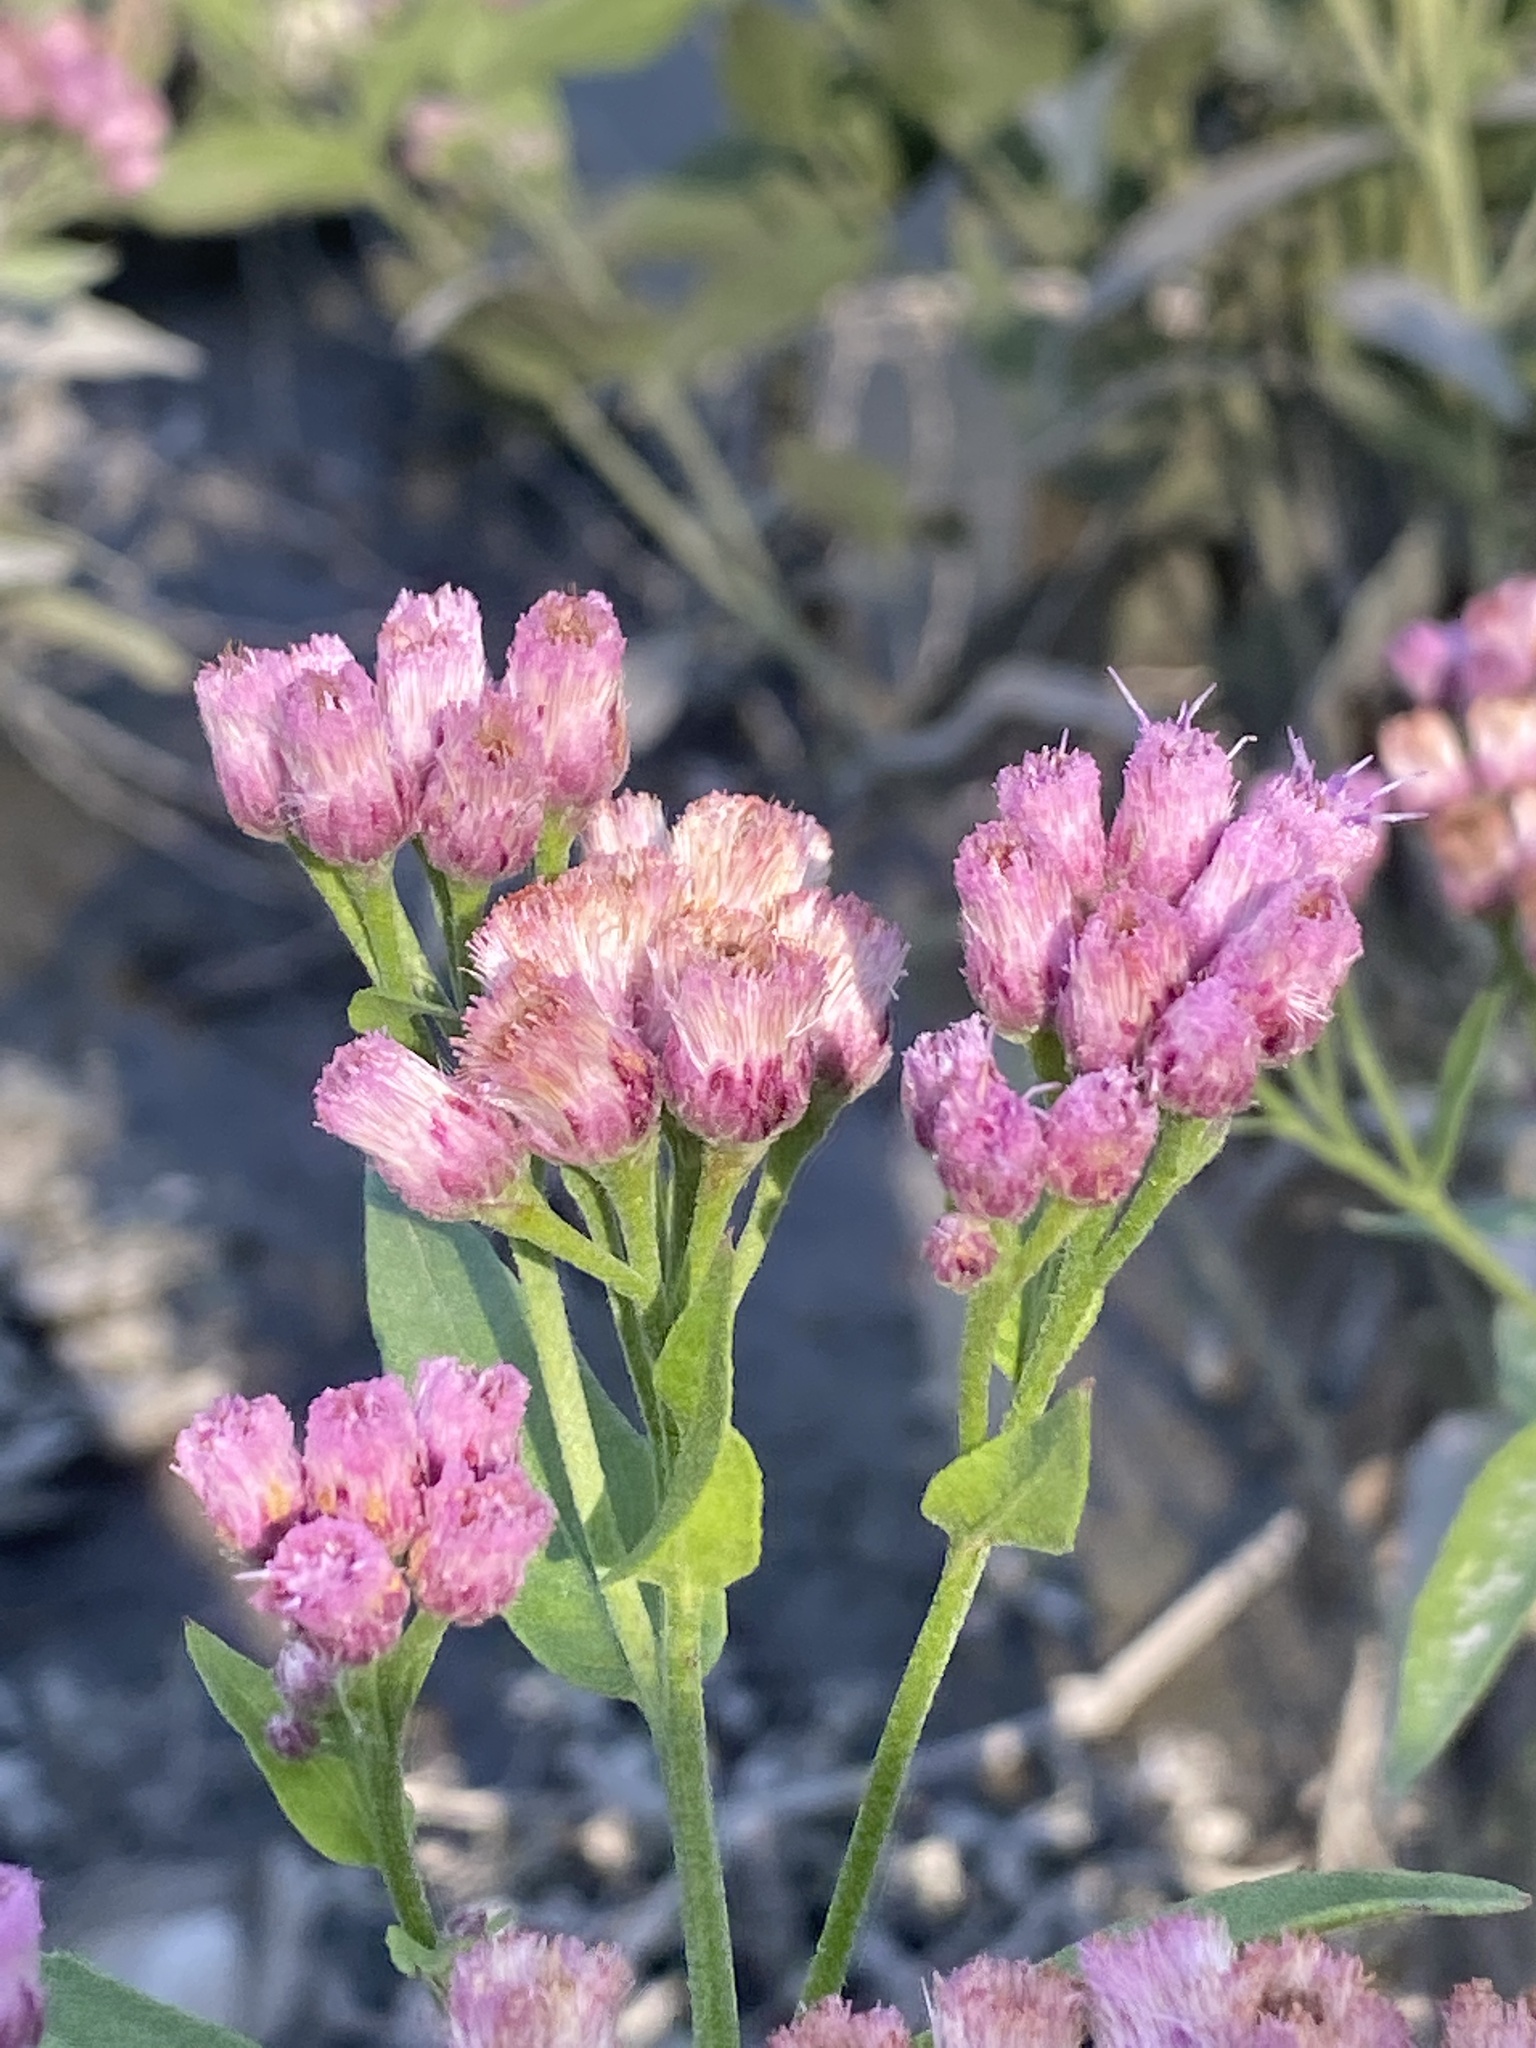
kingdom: Plantae
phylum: Tracheophyta
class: Magnoliopsida
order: Asterales
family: Asteraceae
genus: Pluchea
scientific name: Pluchea odorata
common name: Saltmarsh fleabane
